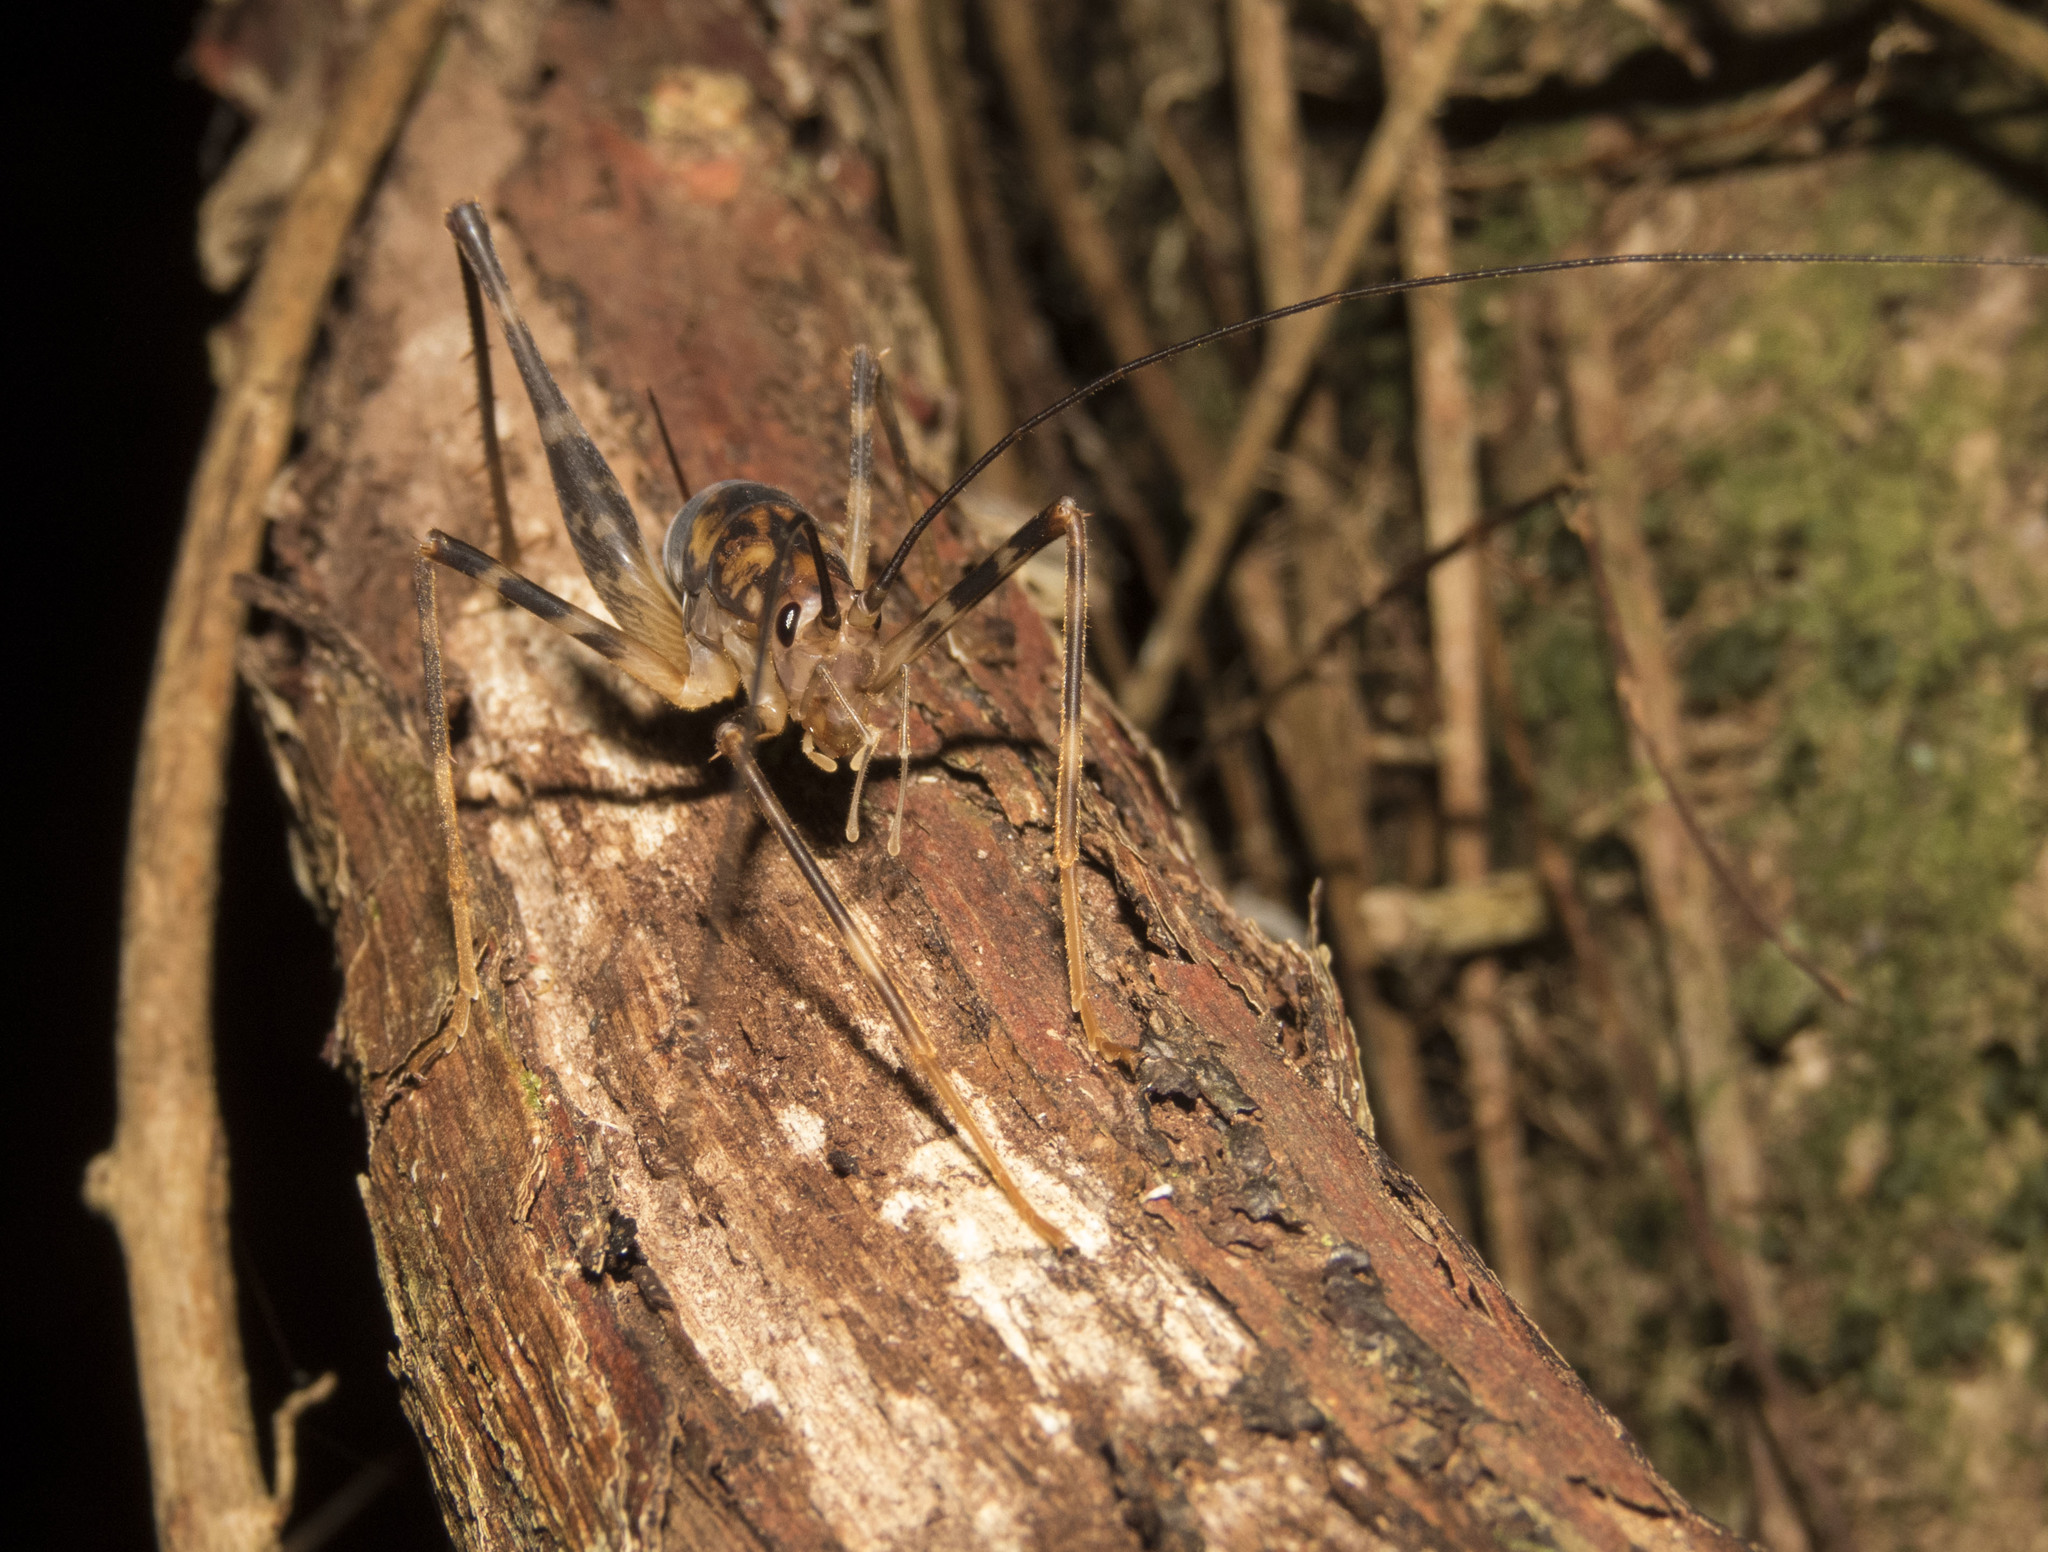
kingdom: Animalia
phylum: Arthropoda
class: Insecta
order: Orthoptera
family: Rhaphidophoridae
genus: Miotopus
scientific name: Miotopus richardsae
